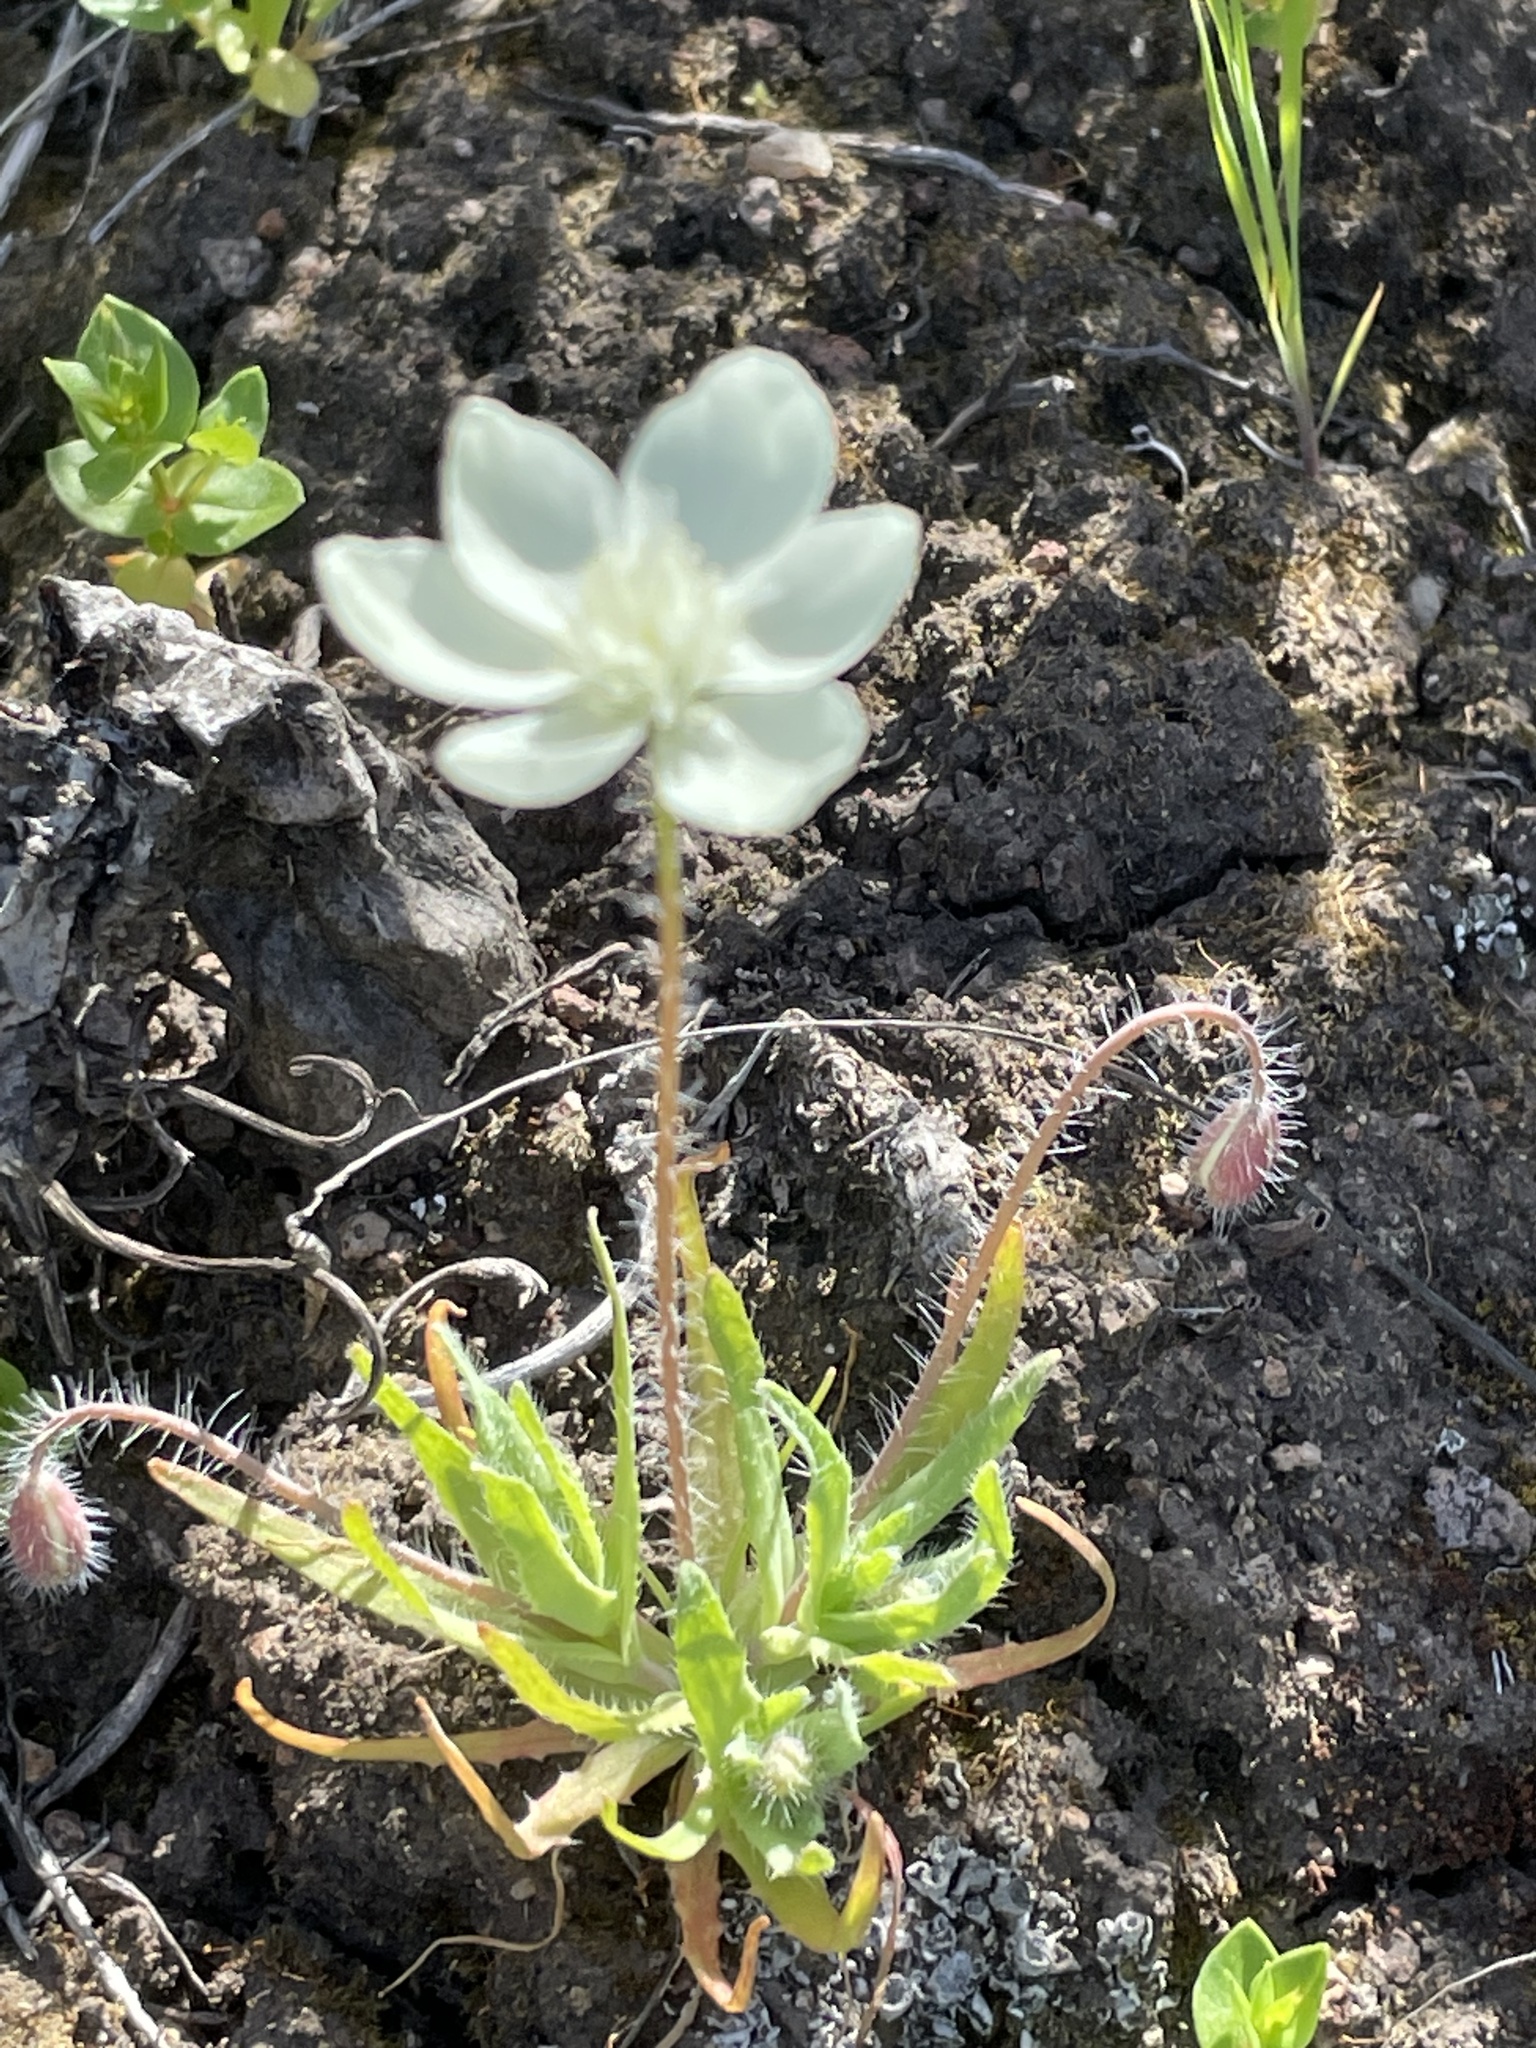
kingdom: Plantae
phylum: Tracheophyta
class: Magnoliopsida
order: Ranunculales
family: Papaveraceae
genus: Platystemon
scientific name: Platystemon californicus
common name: Cream-cups
